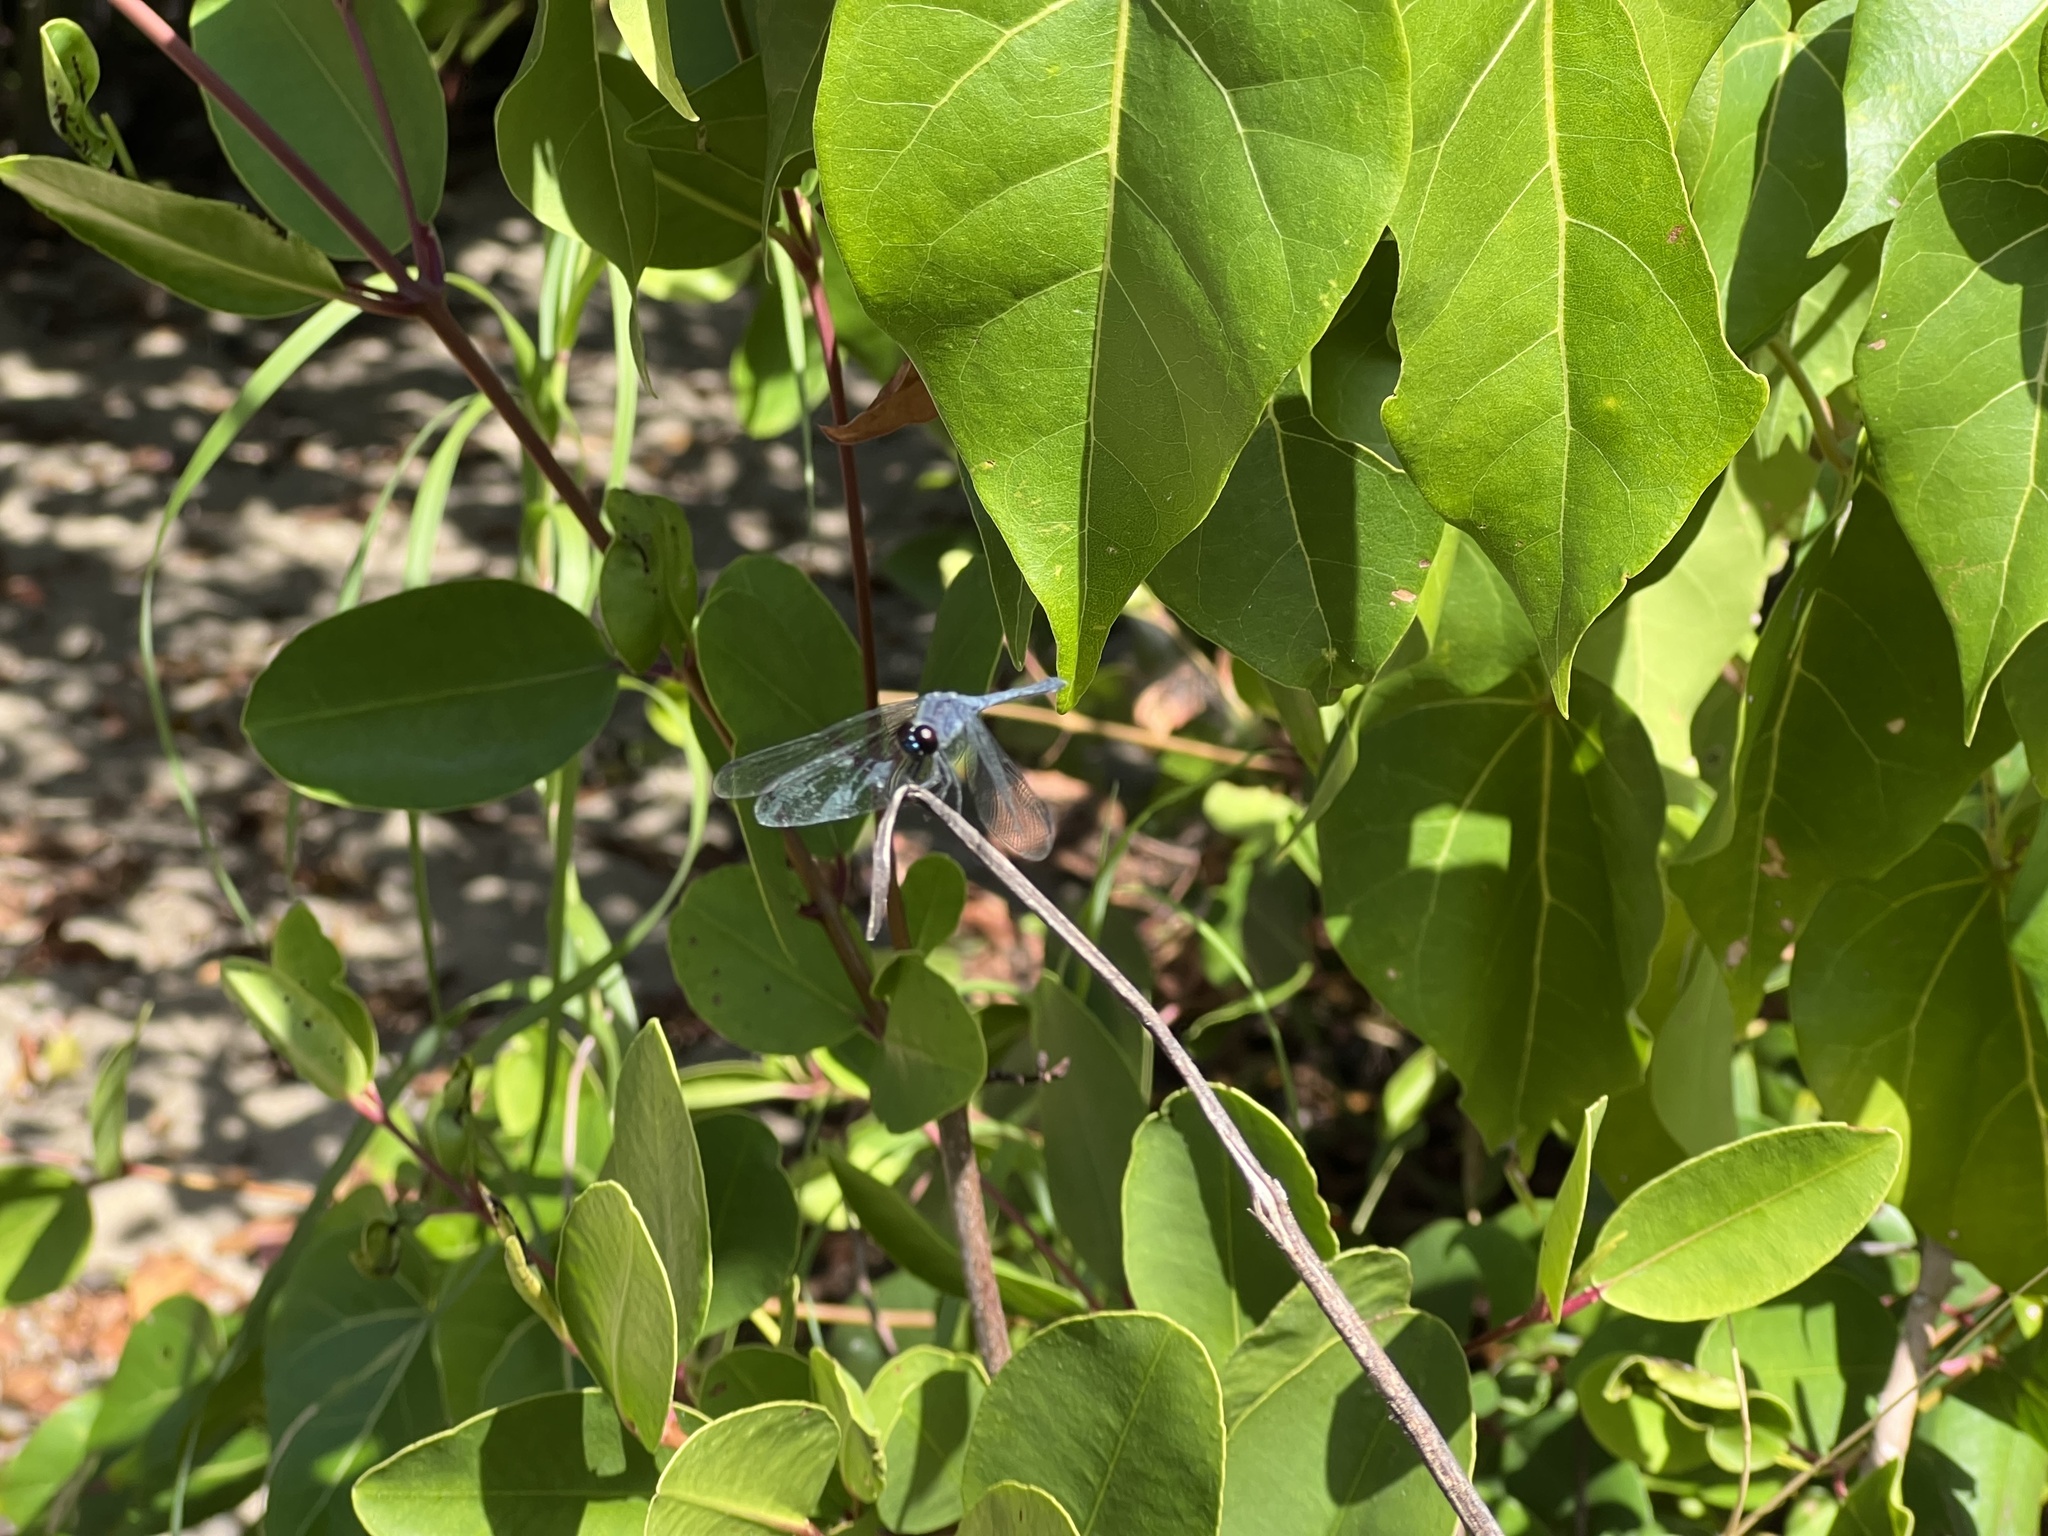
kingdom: Animalia
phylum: Arthropoda
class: Insecta
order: Odonata
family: Libellulidae
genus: Erythrodiplax
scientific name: Erythrodiplax berenice
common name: Seaside dragonlet
